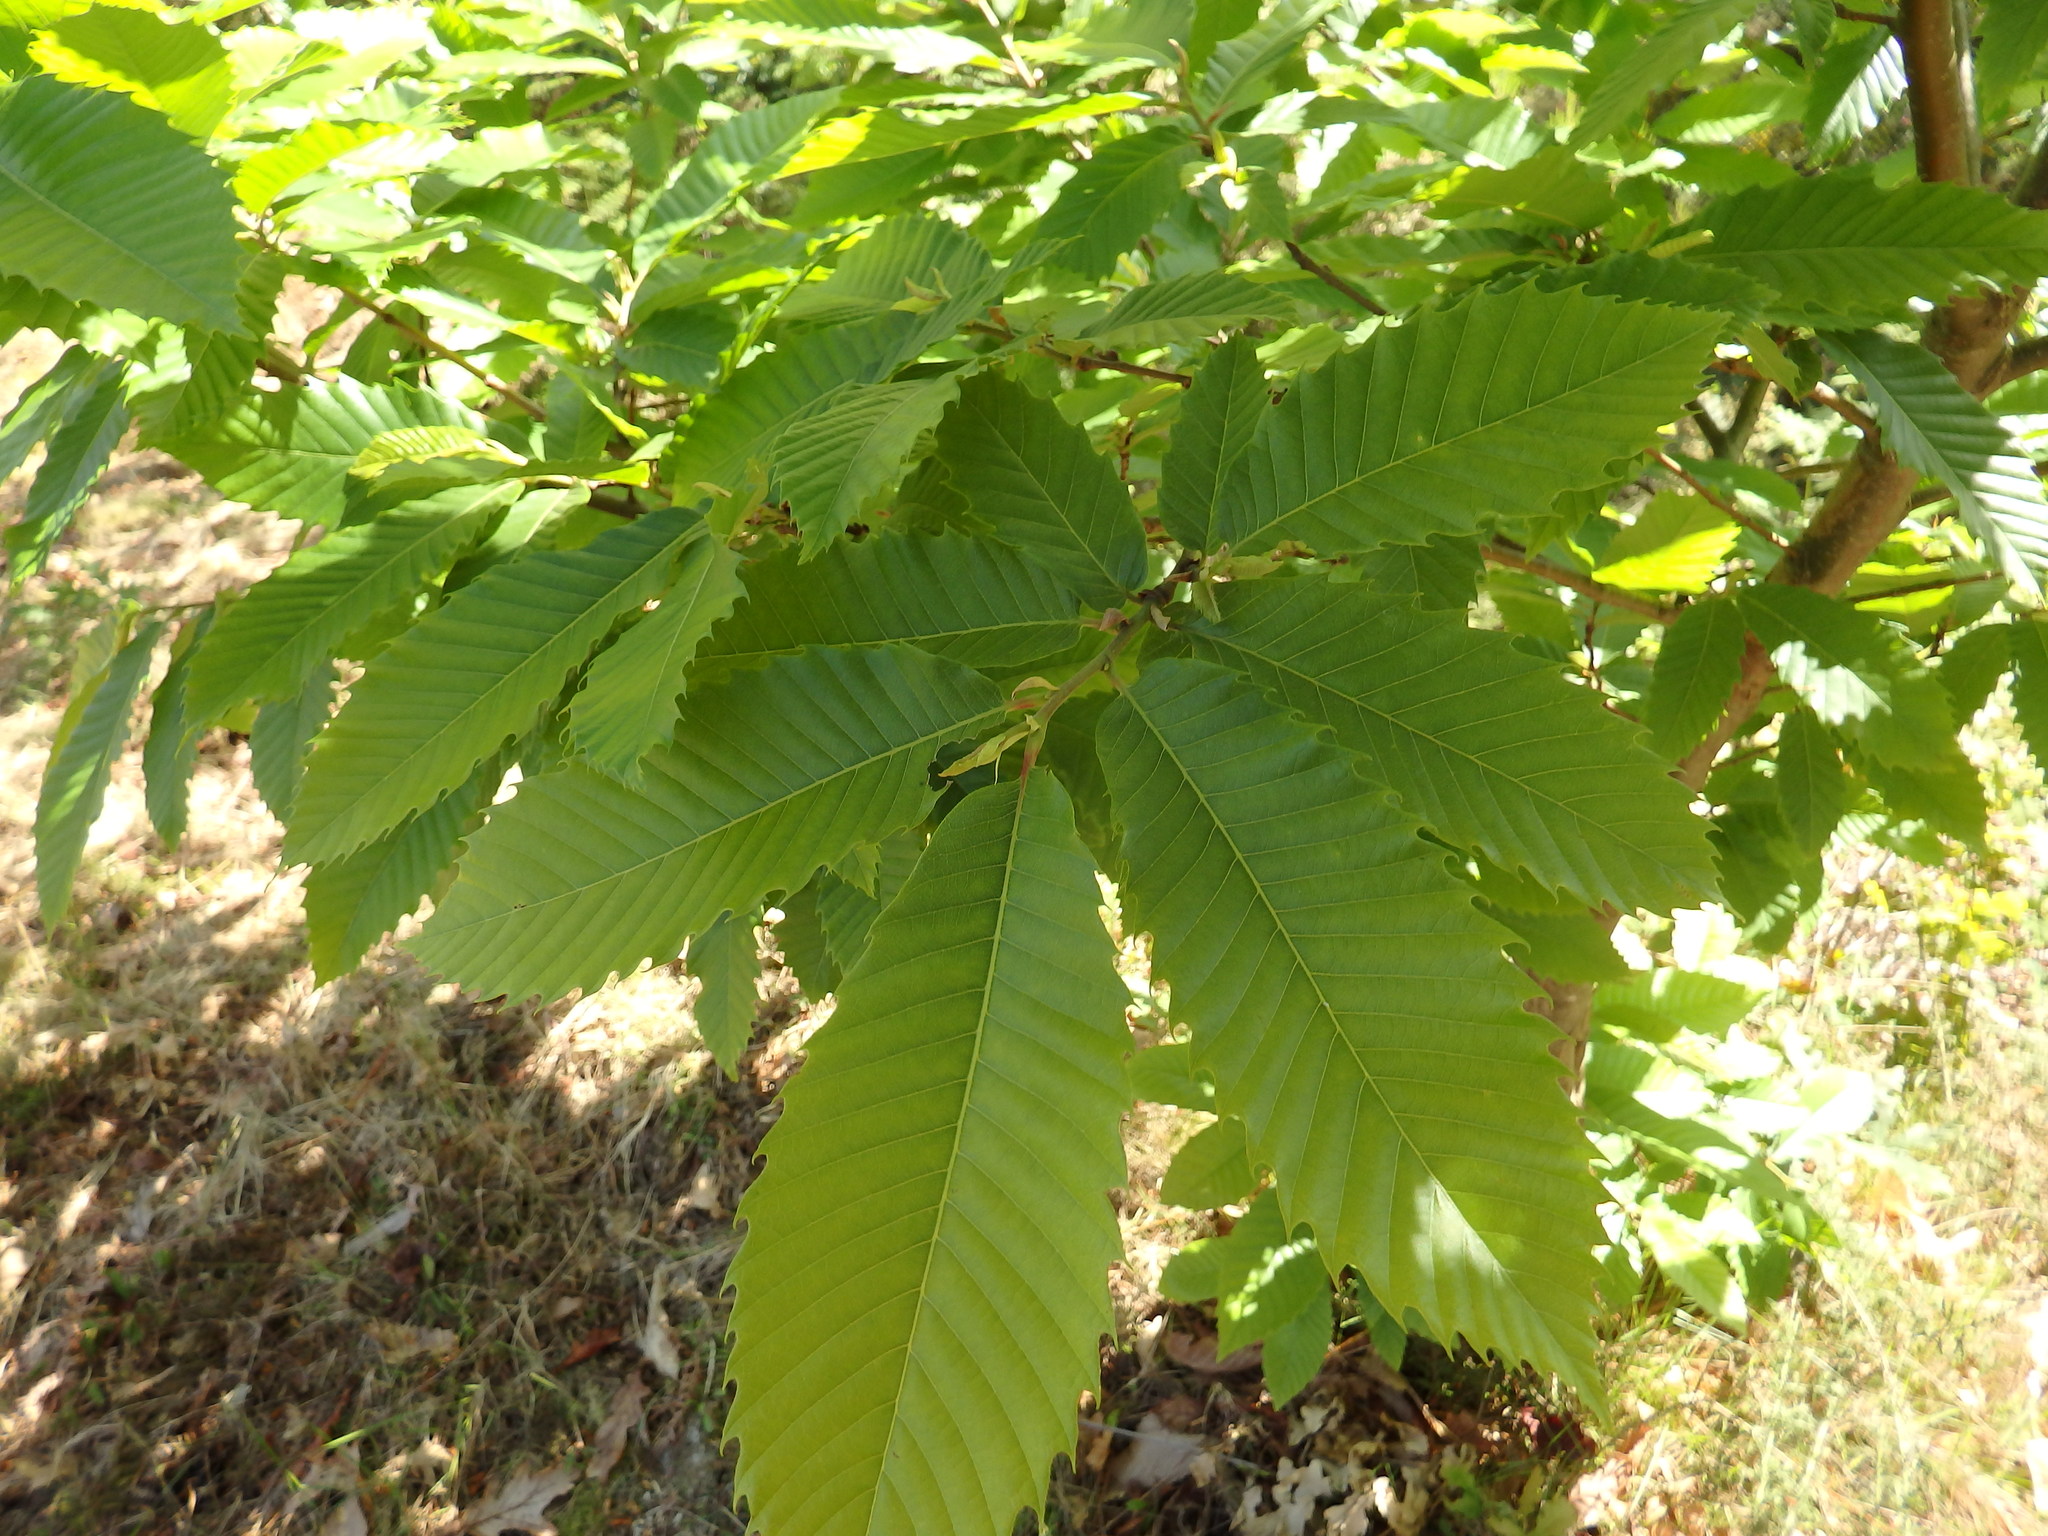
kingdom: Plantae
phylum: Tracheophyta
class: Magnoliopsida
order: Fagales
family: Fagaceae
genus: Castanea
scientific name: Castanea sativa
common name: Sweet chestnut
